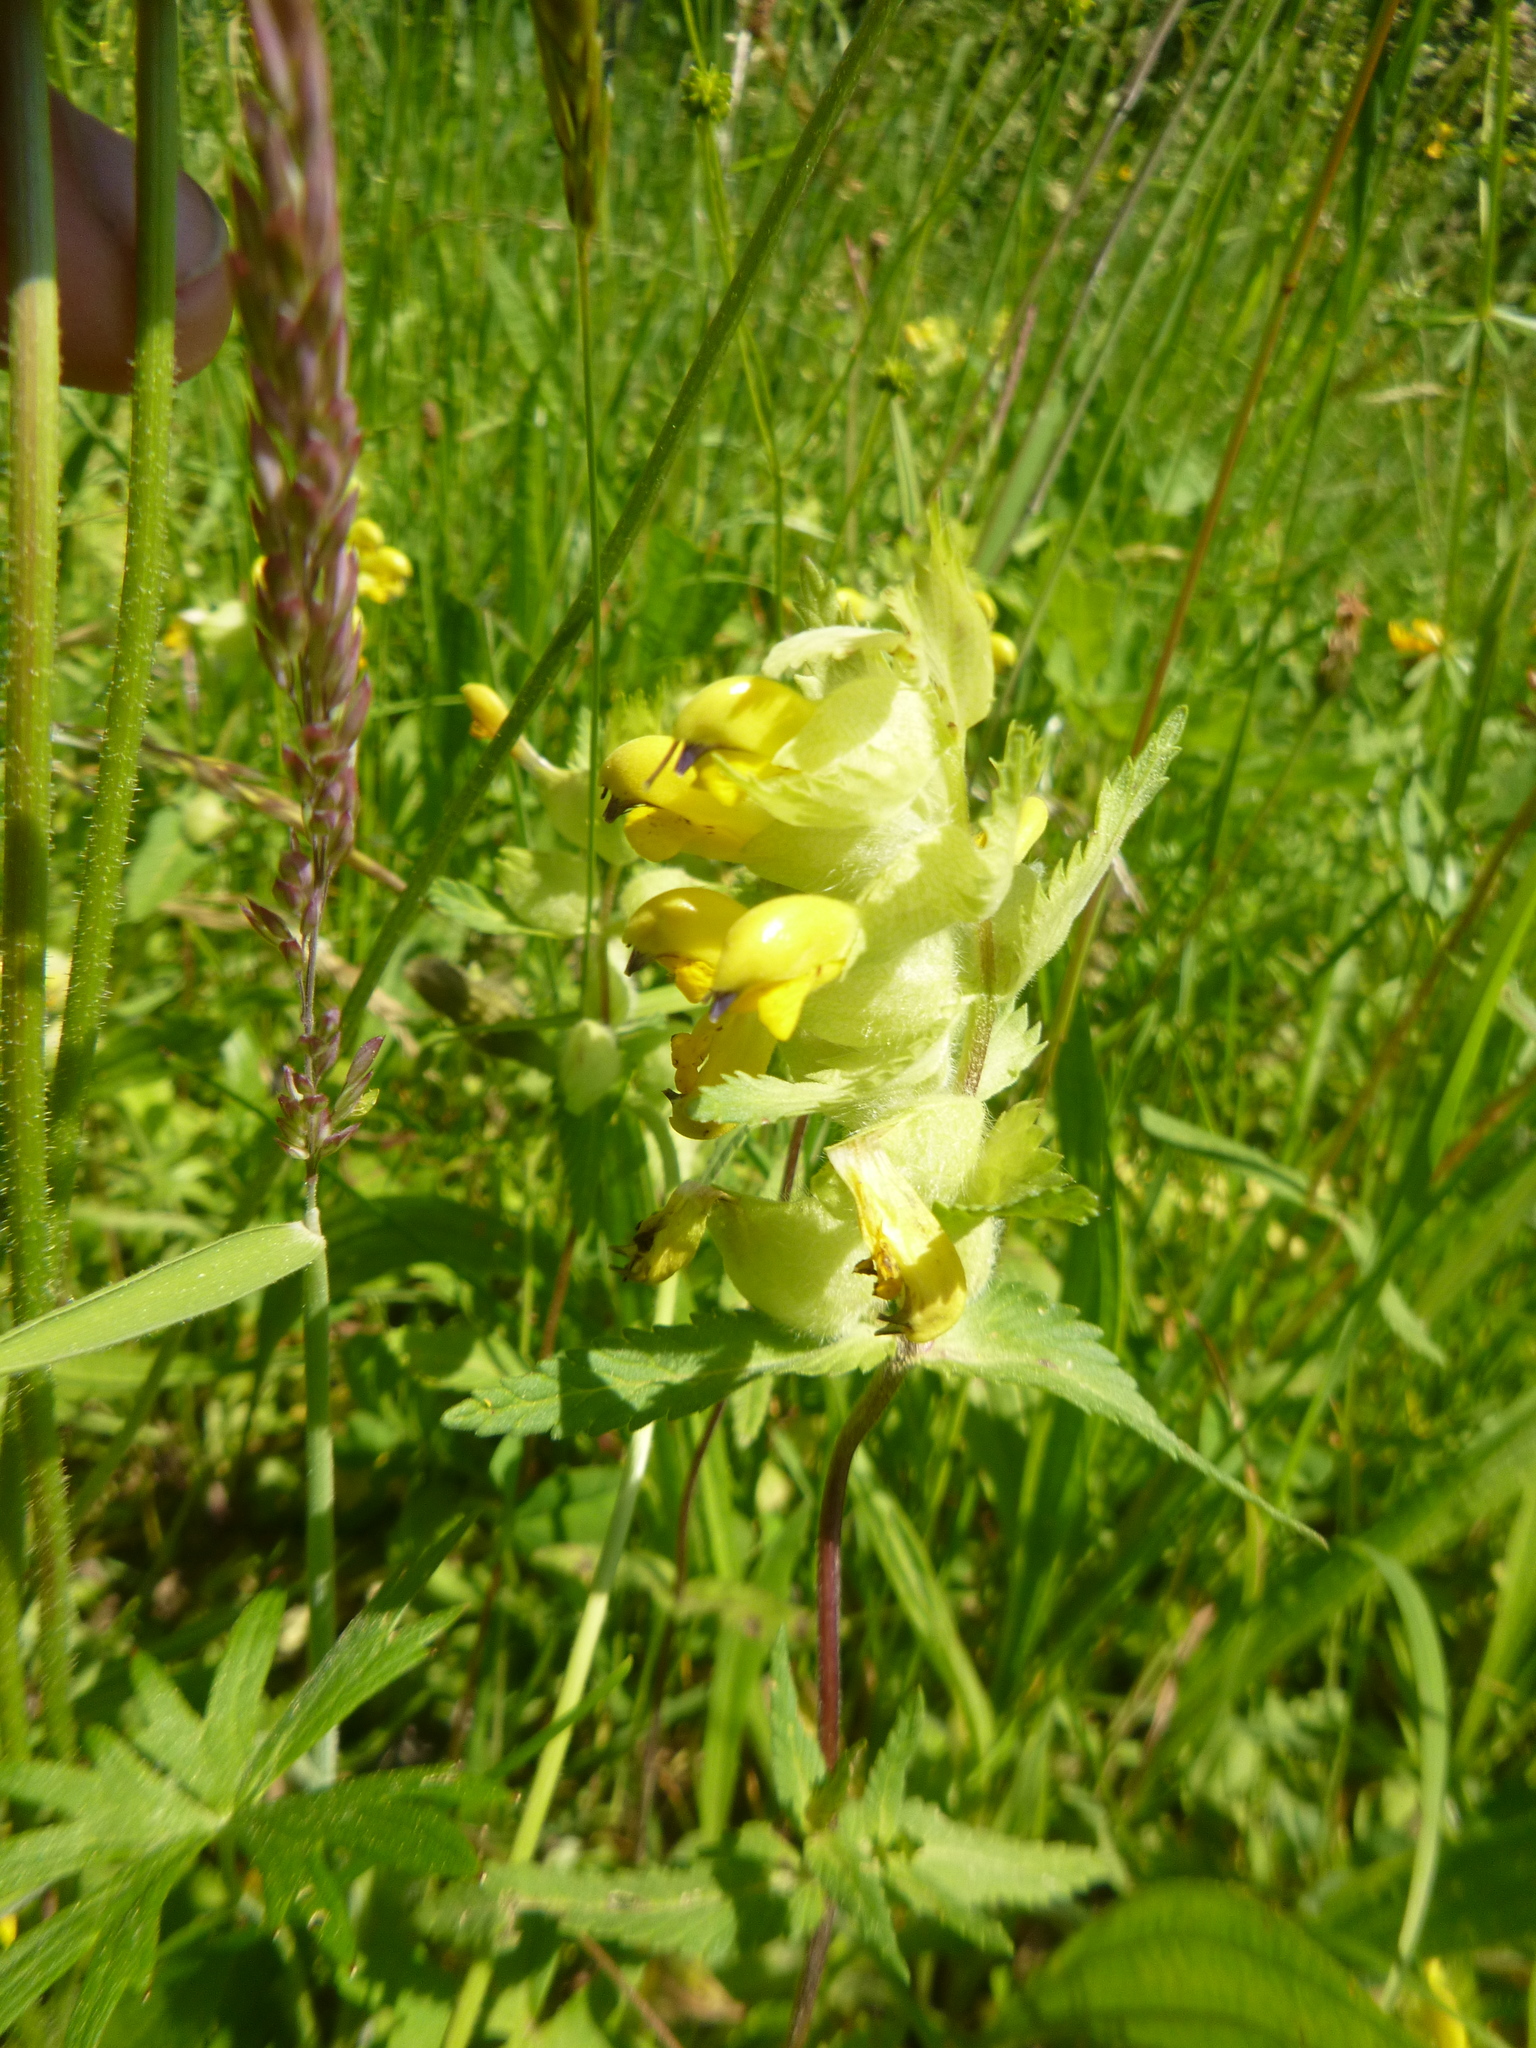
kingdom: Plantae
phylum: Tracheophyta
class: Magnoliopsida
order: Lamiales
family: Orobanchaceae
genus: Rhinanthus
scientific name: Rhinanthus alectorolophus
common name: Greater yellow-rattle
